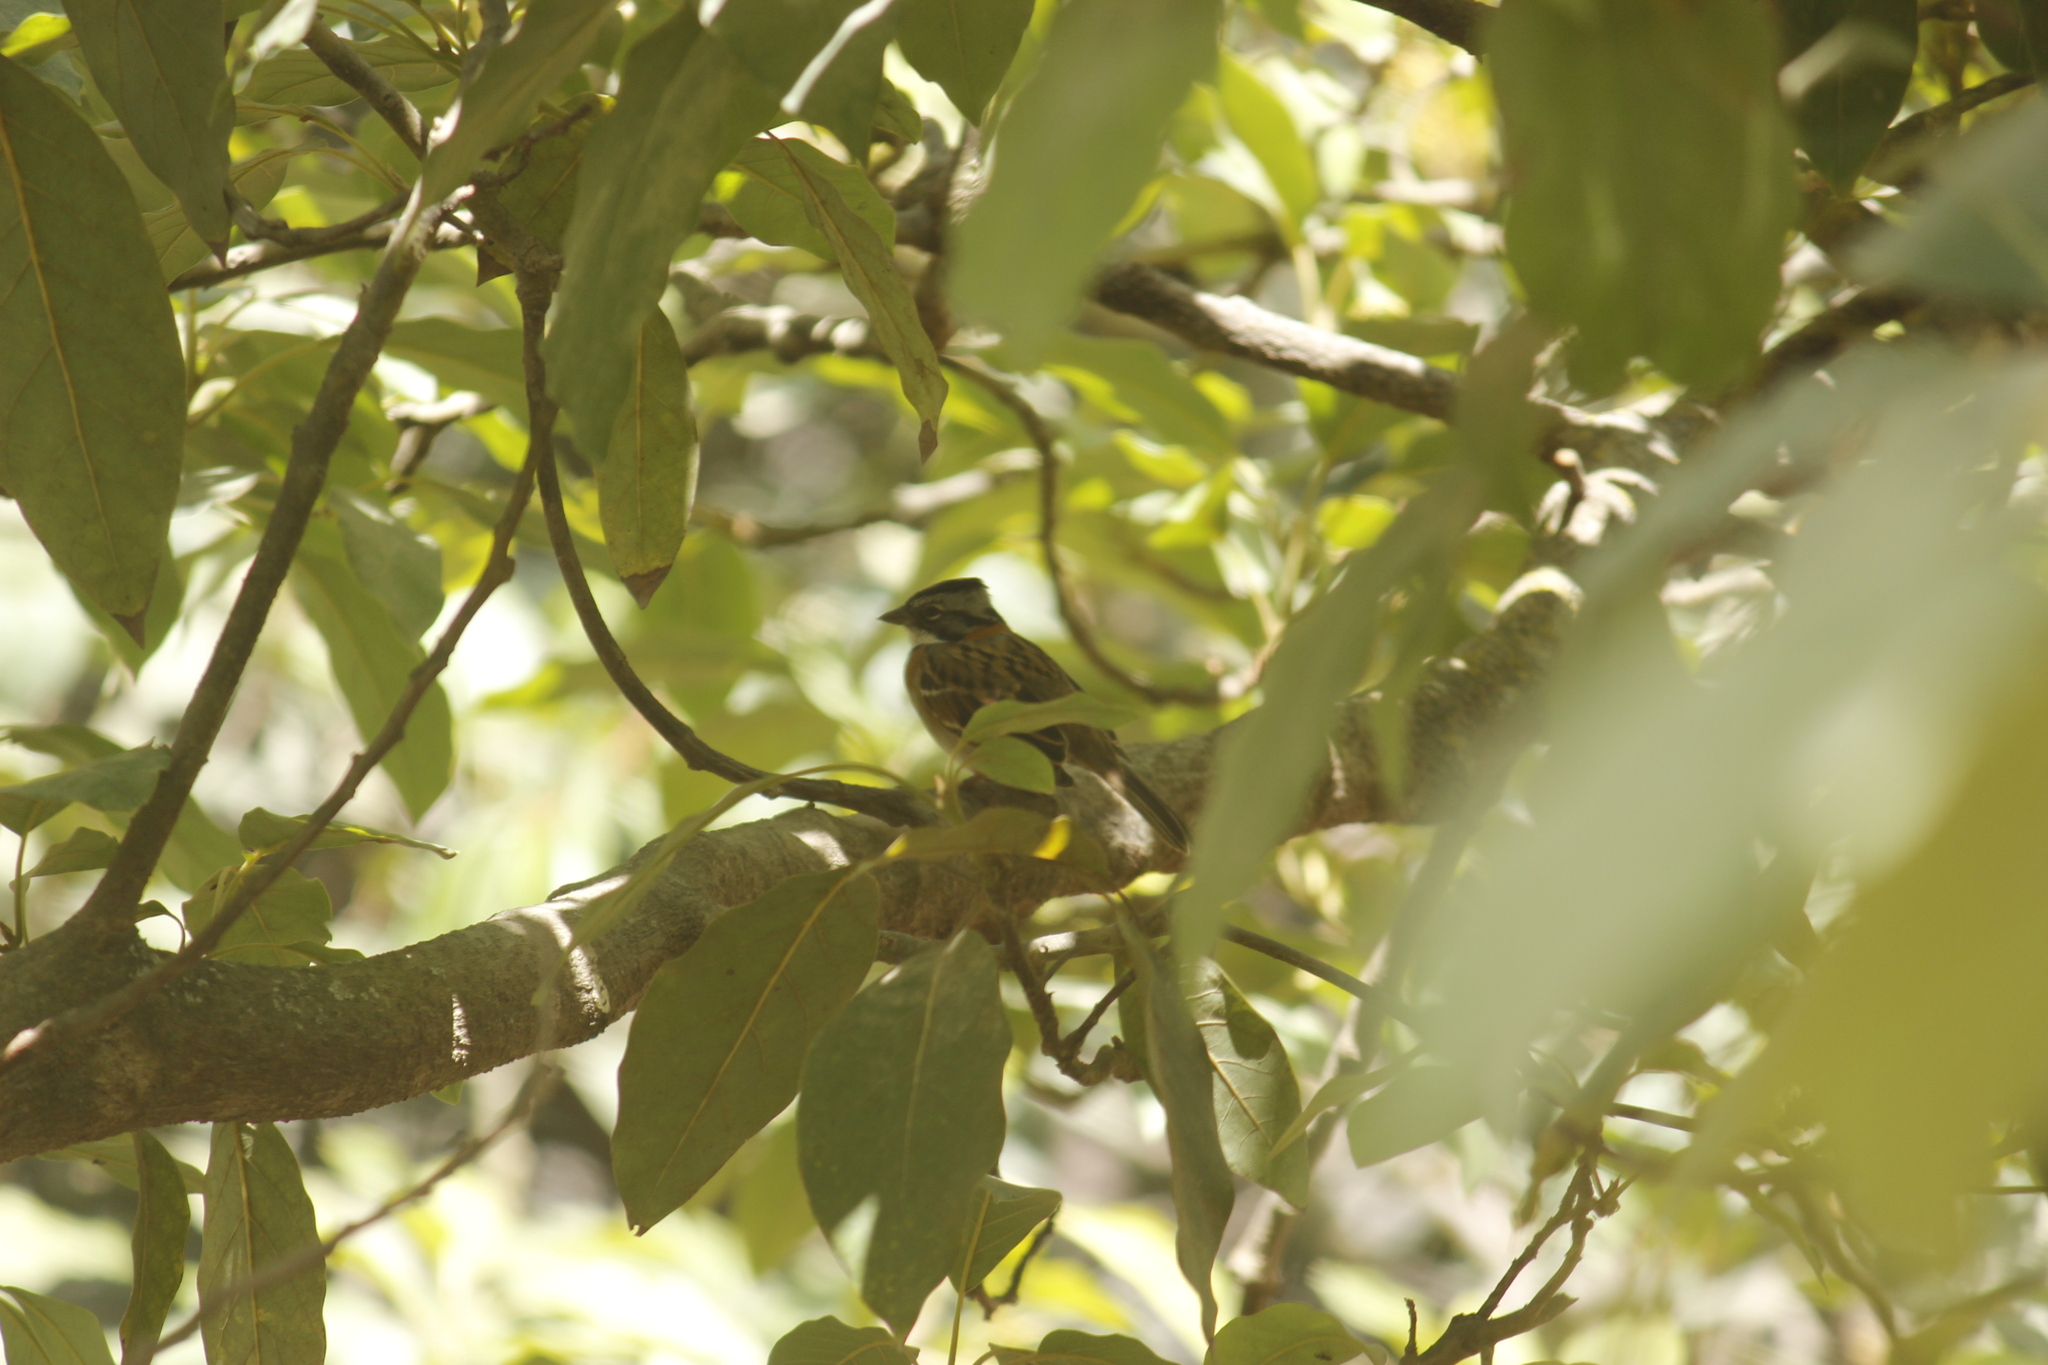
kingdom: Animalia
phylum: Chordata
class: Aves
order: Passeriformes
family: Passerellidae
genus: Zonotrichia
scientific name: Zonotrichia capensis
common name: Rufous-collared sparrow
